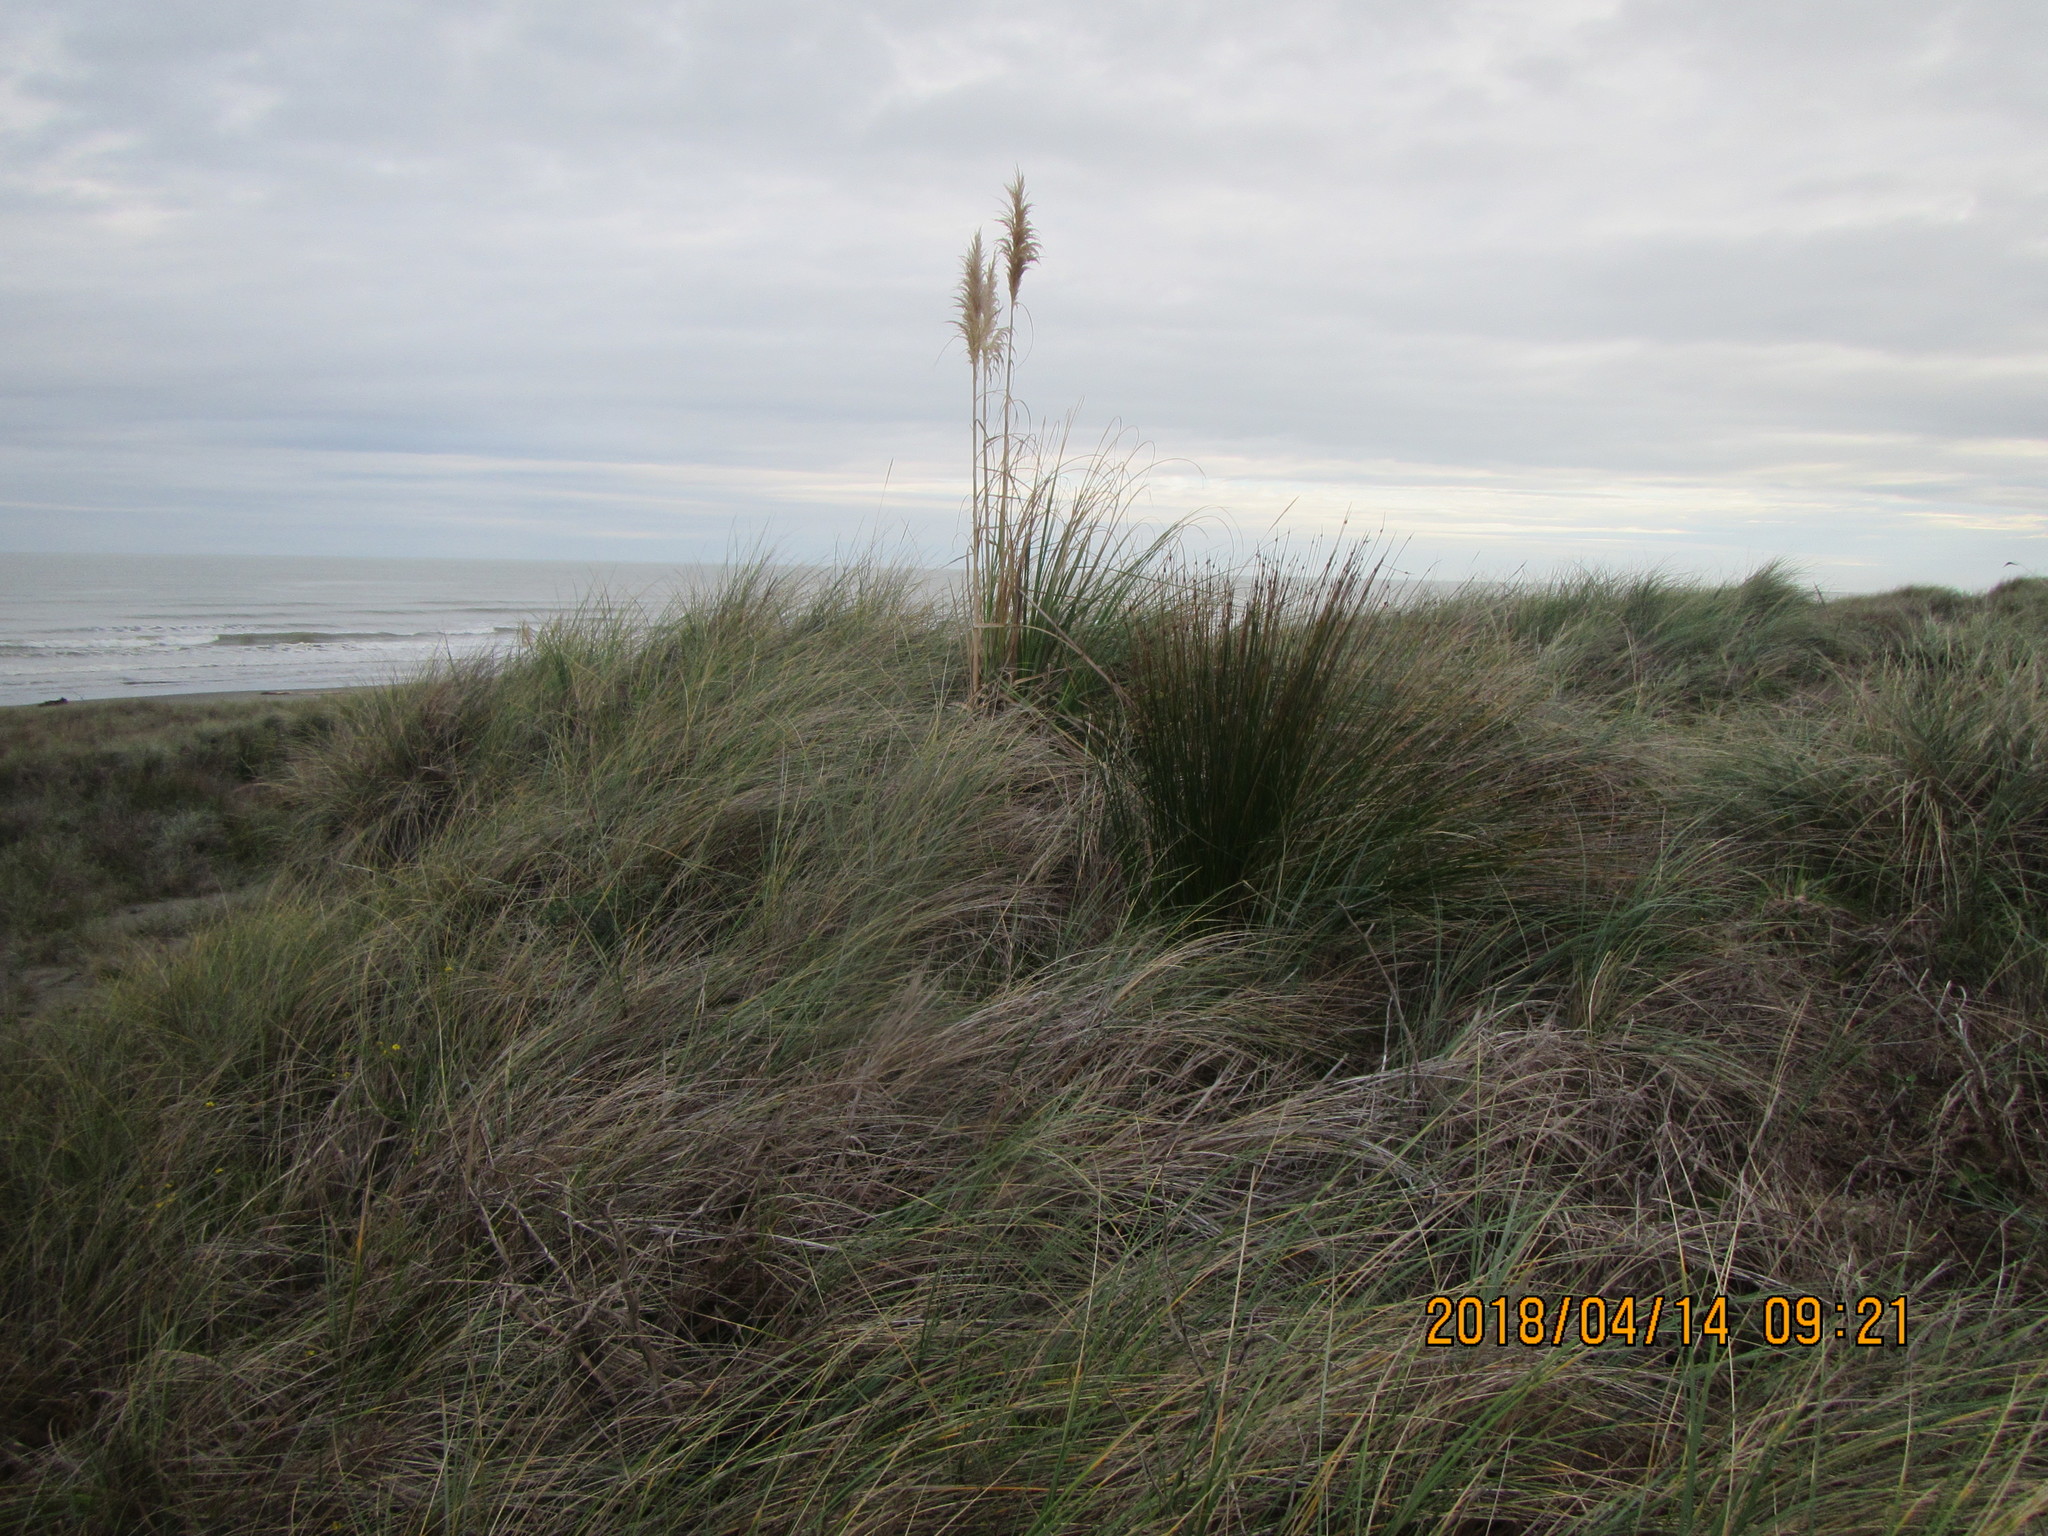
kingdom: Plantae
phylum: Tracheophyta
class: Liliopsida
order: Poales
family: Poaceae
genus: Cortaderia
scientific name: Cortaderia selloana
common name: Uruguayan pampas grass
